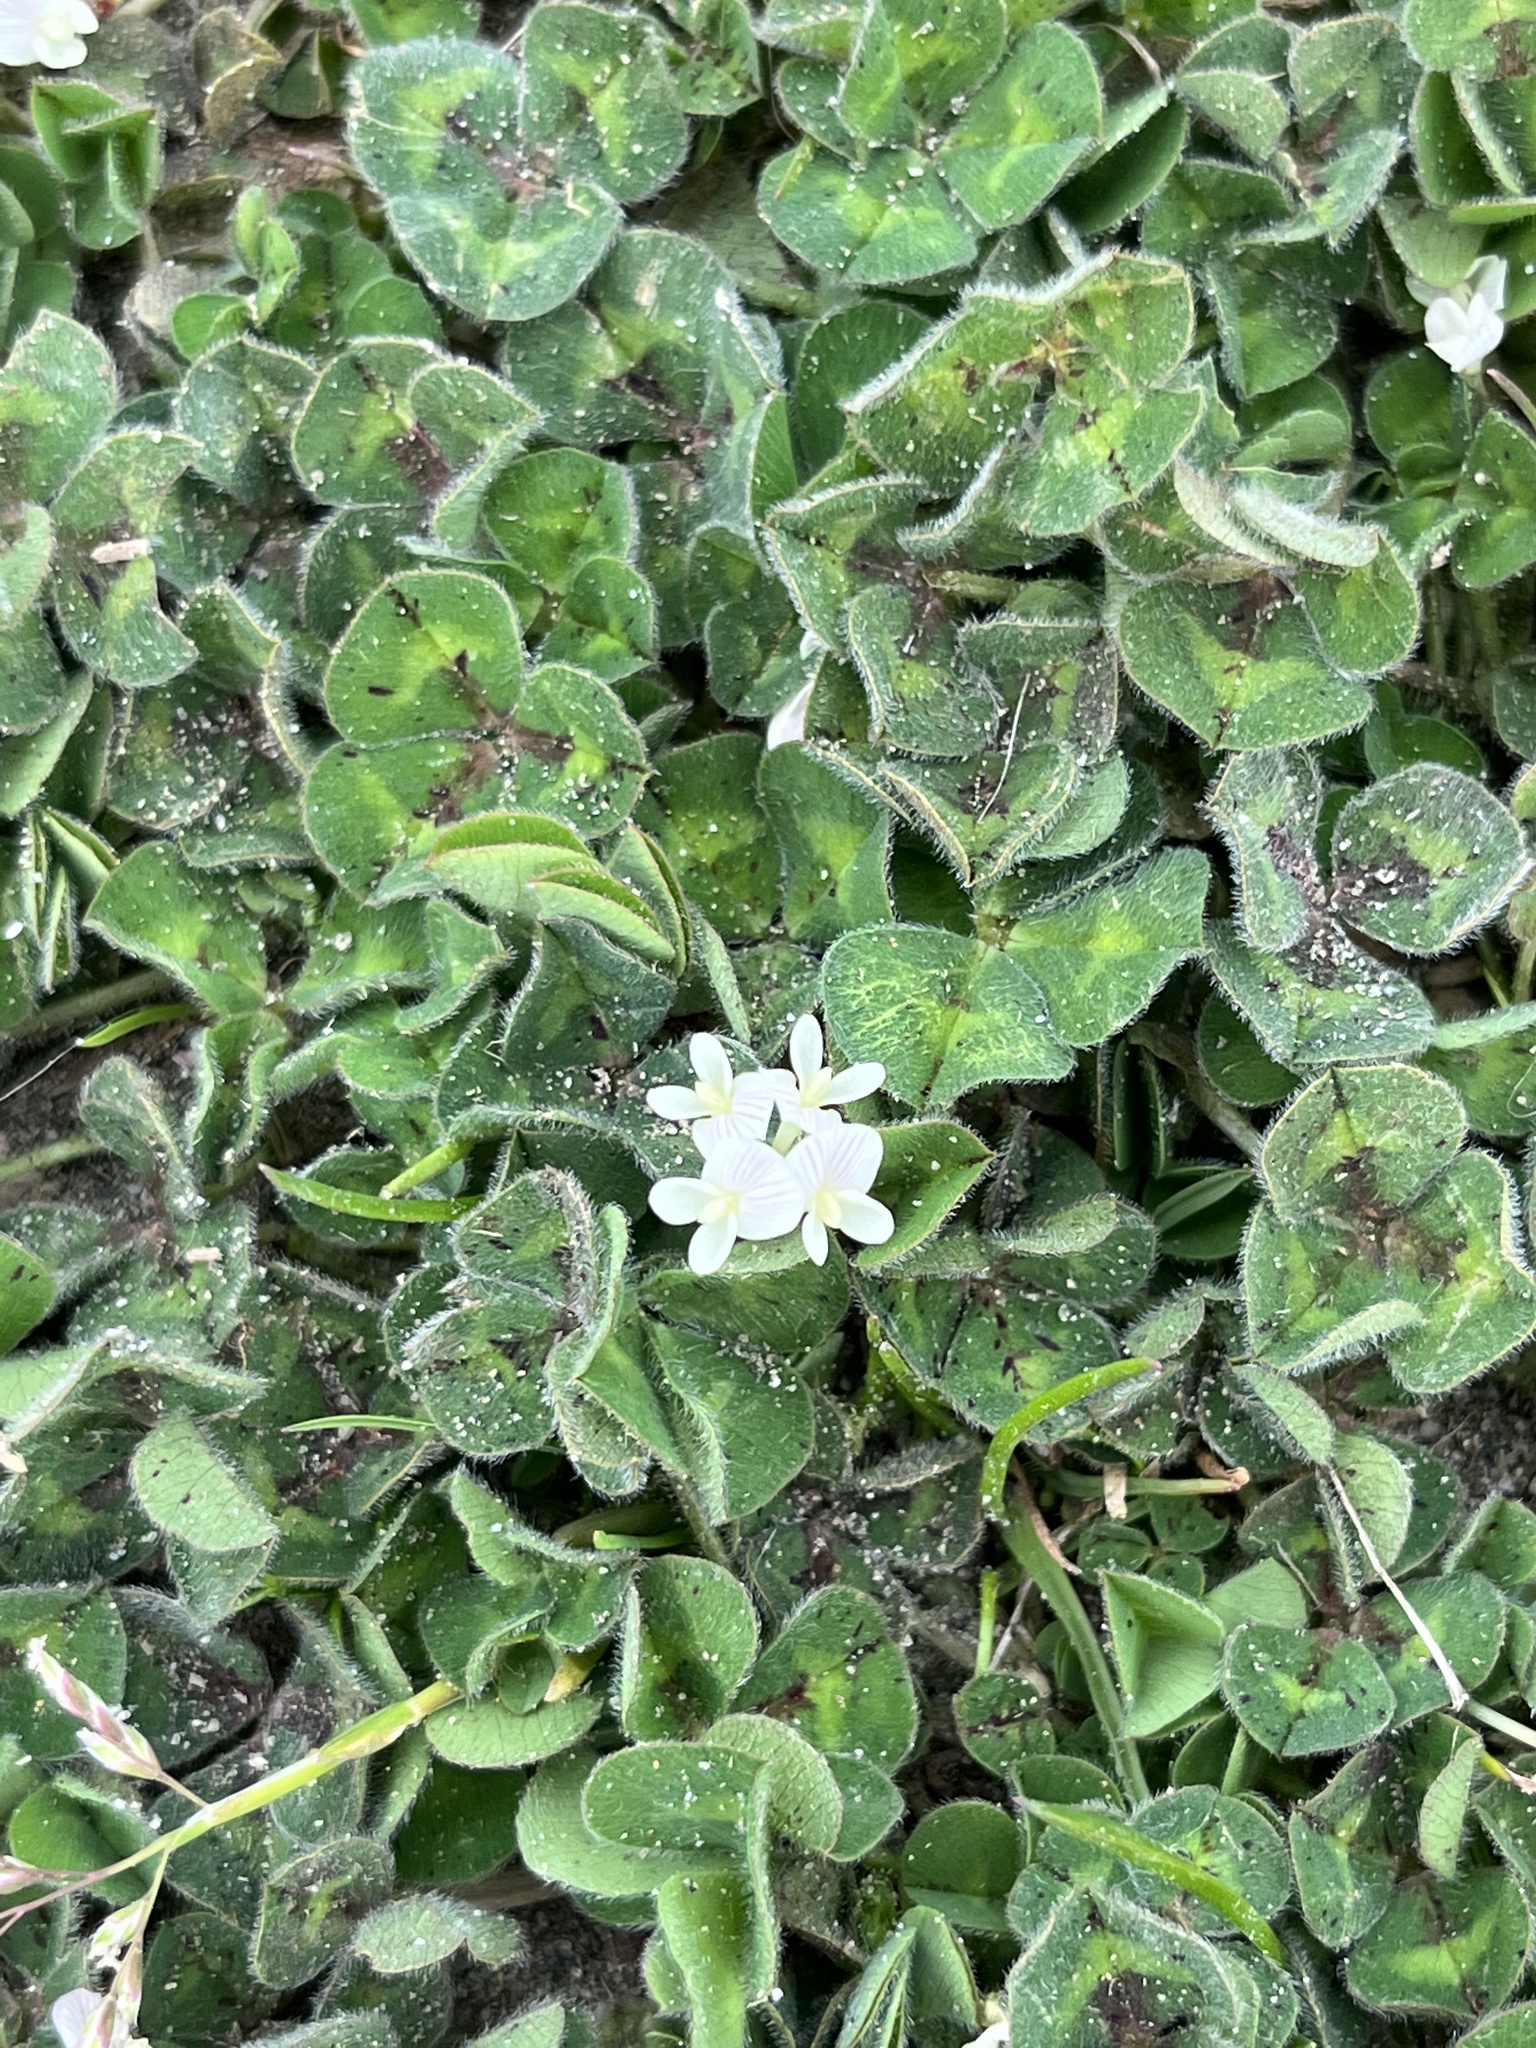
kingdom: Plantae
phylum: Tracheophyta
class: Magnoliopsida
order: Fabales
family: Fabaceae
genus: Trifolium
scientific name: Trifolium subterraneum
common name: Subterranean clover
